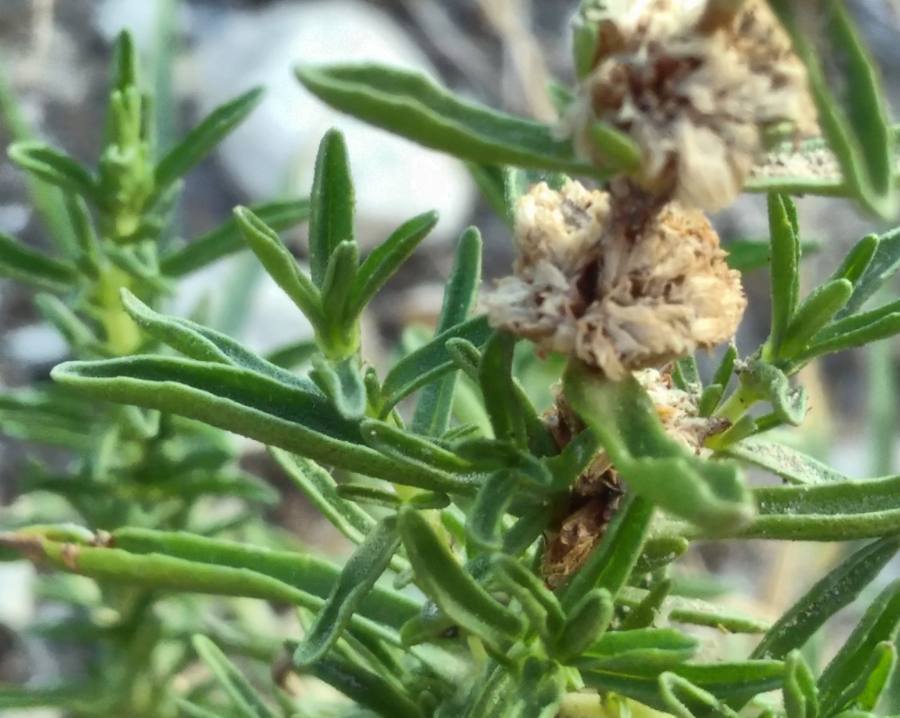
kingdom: Plantae
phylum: Tracheophyta
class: Magnoliopsida
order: Lamiales
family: Lamiaceae
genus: Satureja
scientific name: Satureja montana
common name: Winter savory
